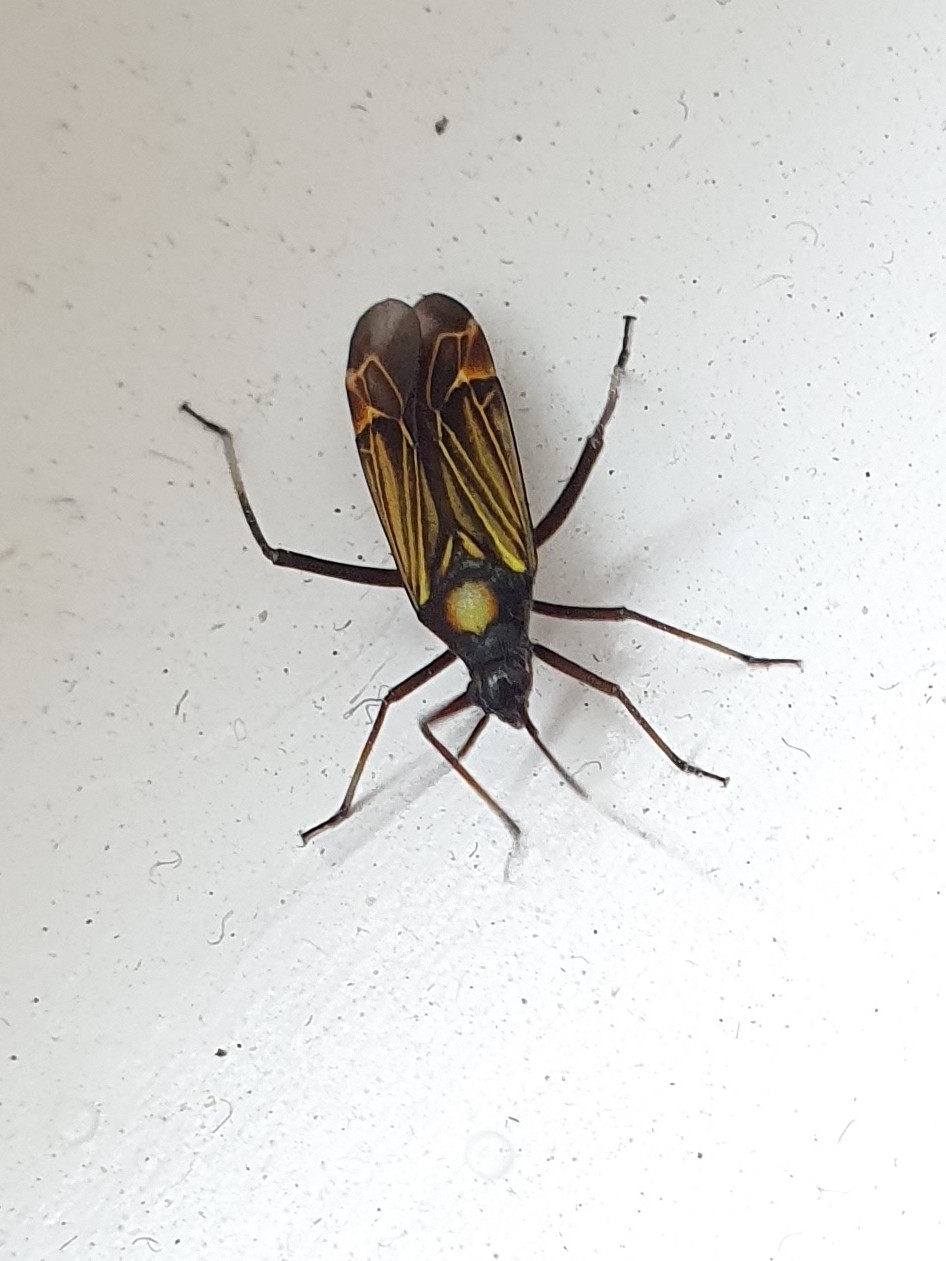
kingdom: Animalia
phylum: Arthropoda
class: Insecta
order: Hemiptera
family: Miridae
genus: Miris
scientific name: Miris striatus
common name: Fine streaked bugkin
